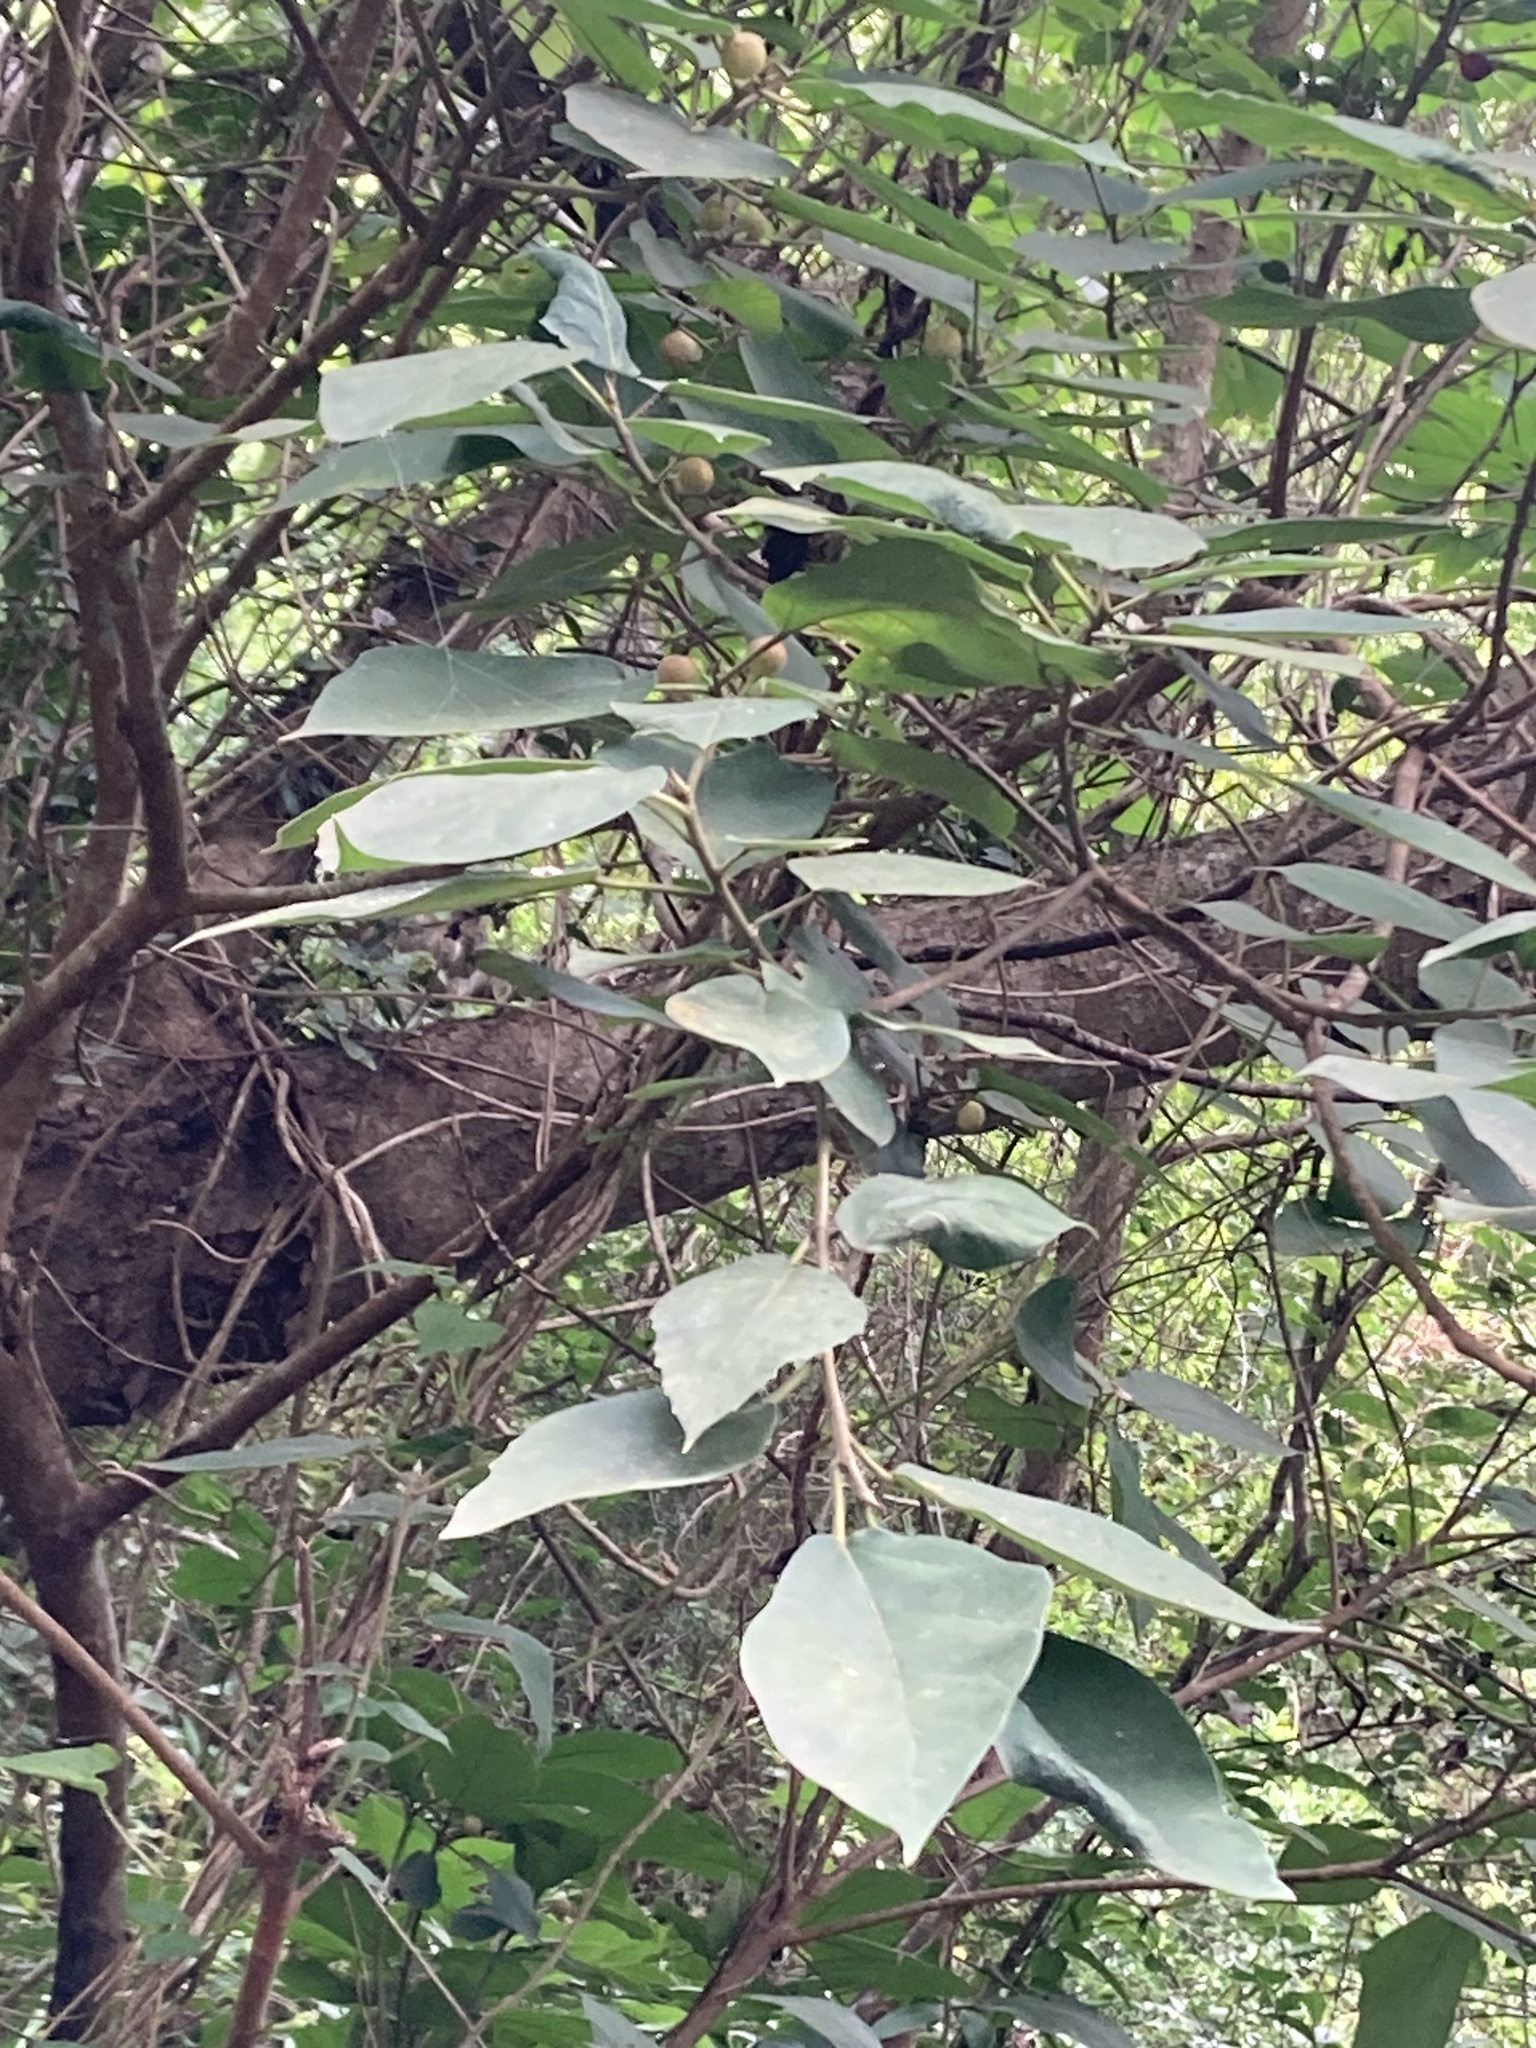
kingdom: Plantae
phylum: Tracheophyta
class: Magnoliopsida
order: Rosales
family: Moraceae
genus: Ficus
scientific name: Ficus erecta
